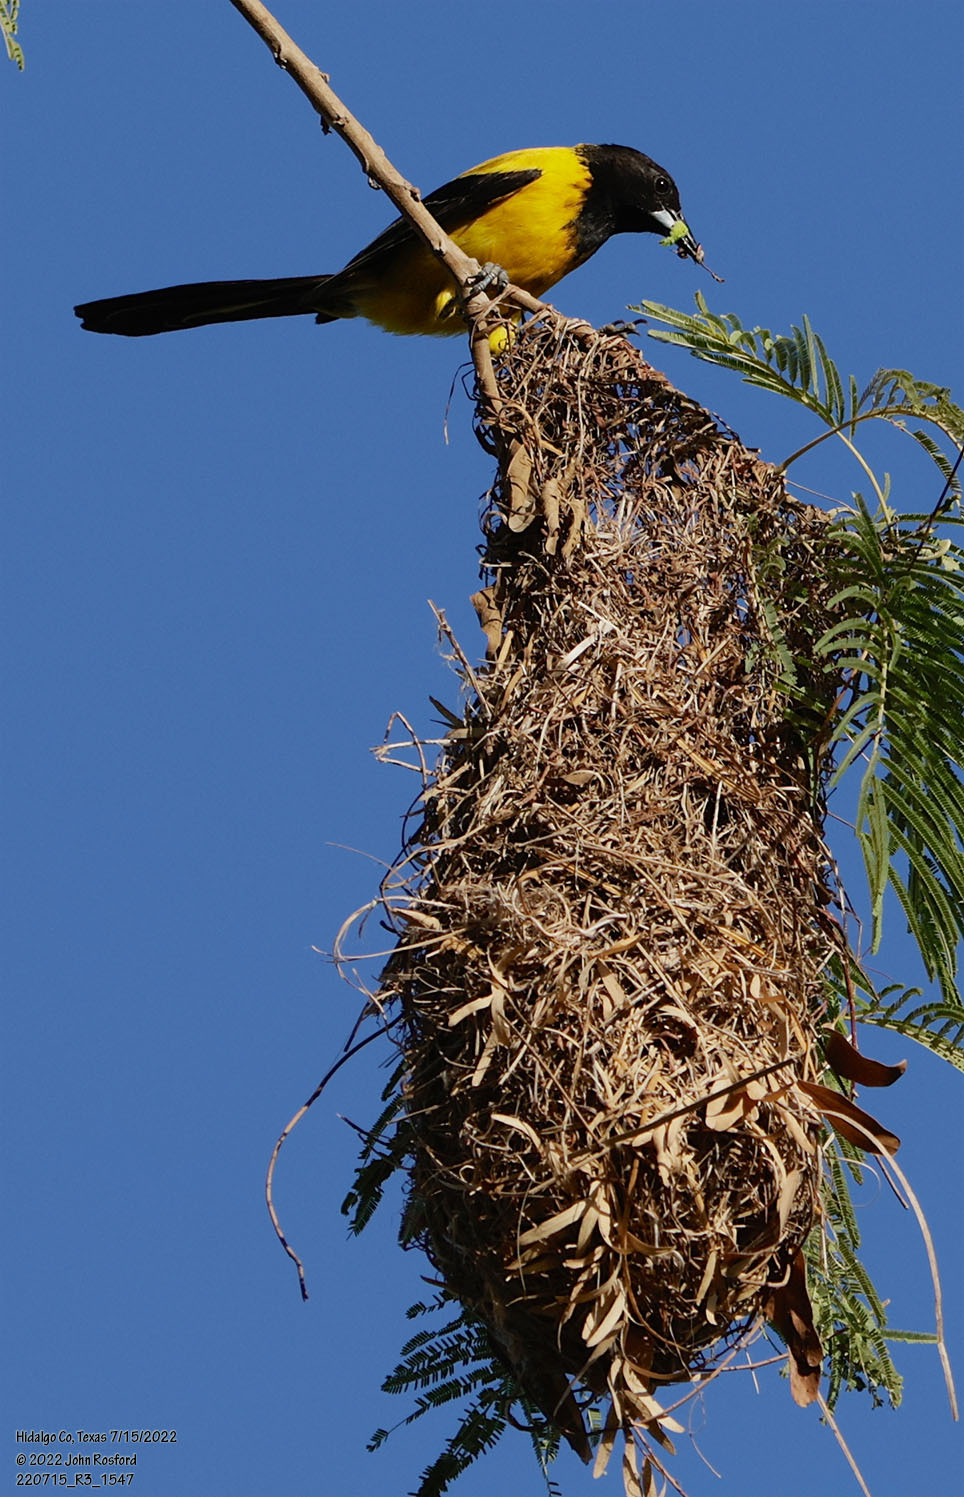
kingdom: Animalia
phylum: Chordata
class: Aves
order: Passeriformes
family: Icteridae
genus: Icterus
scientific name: Icterus graduacauda
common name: Audubon's oriole
